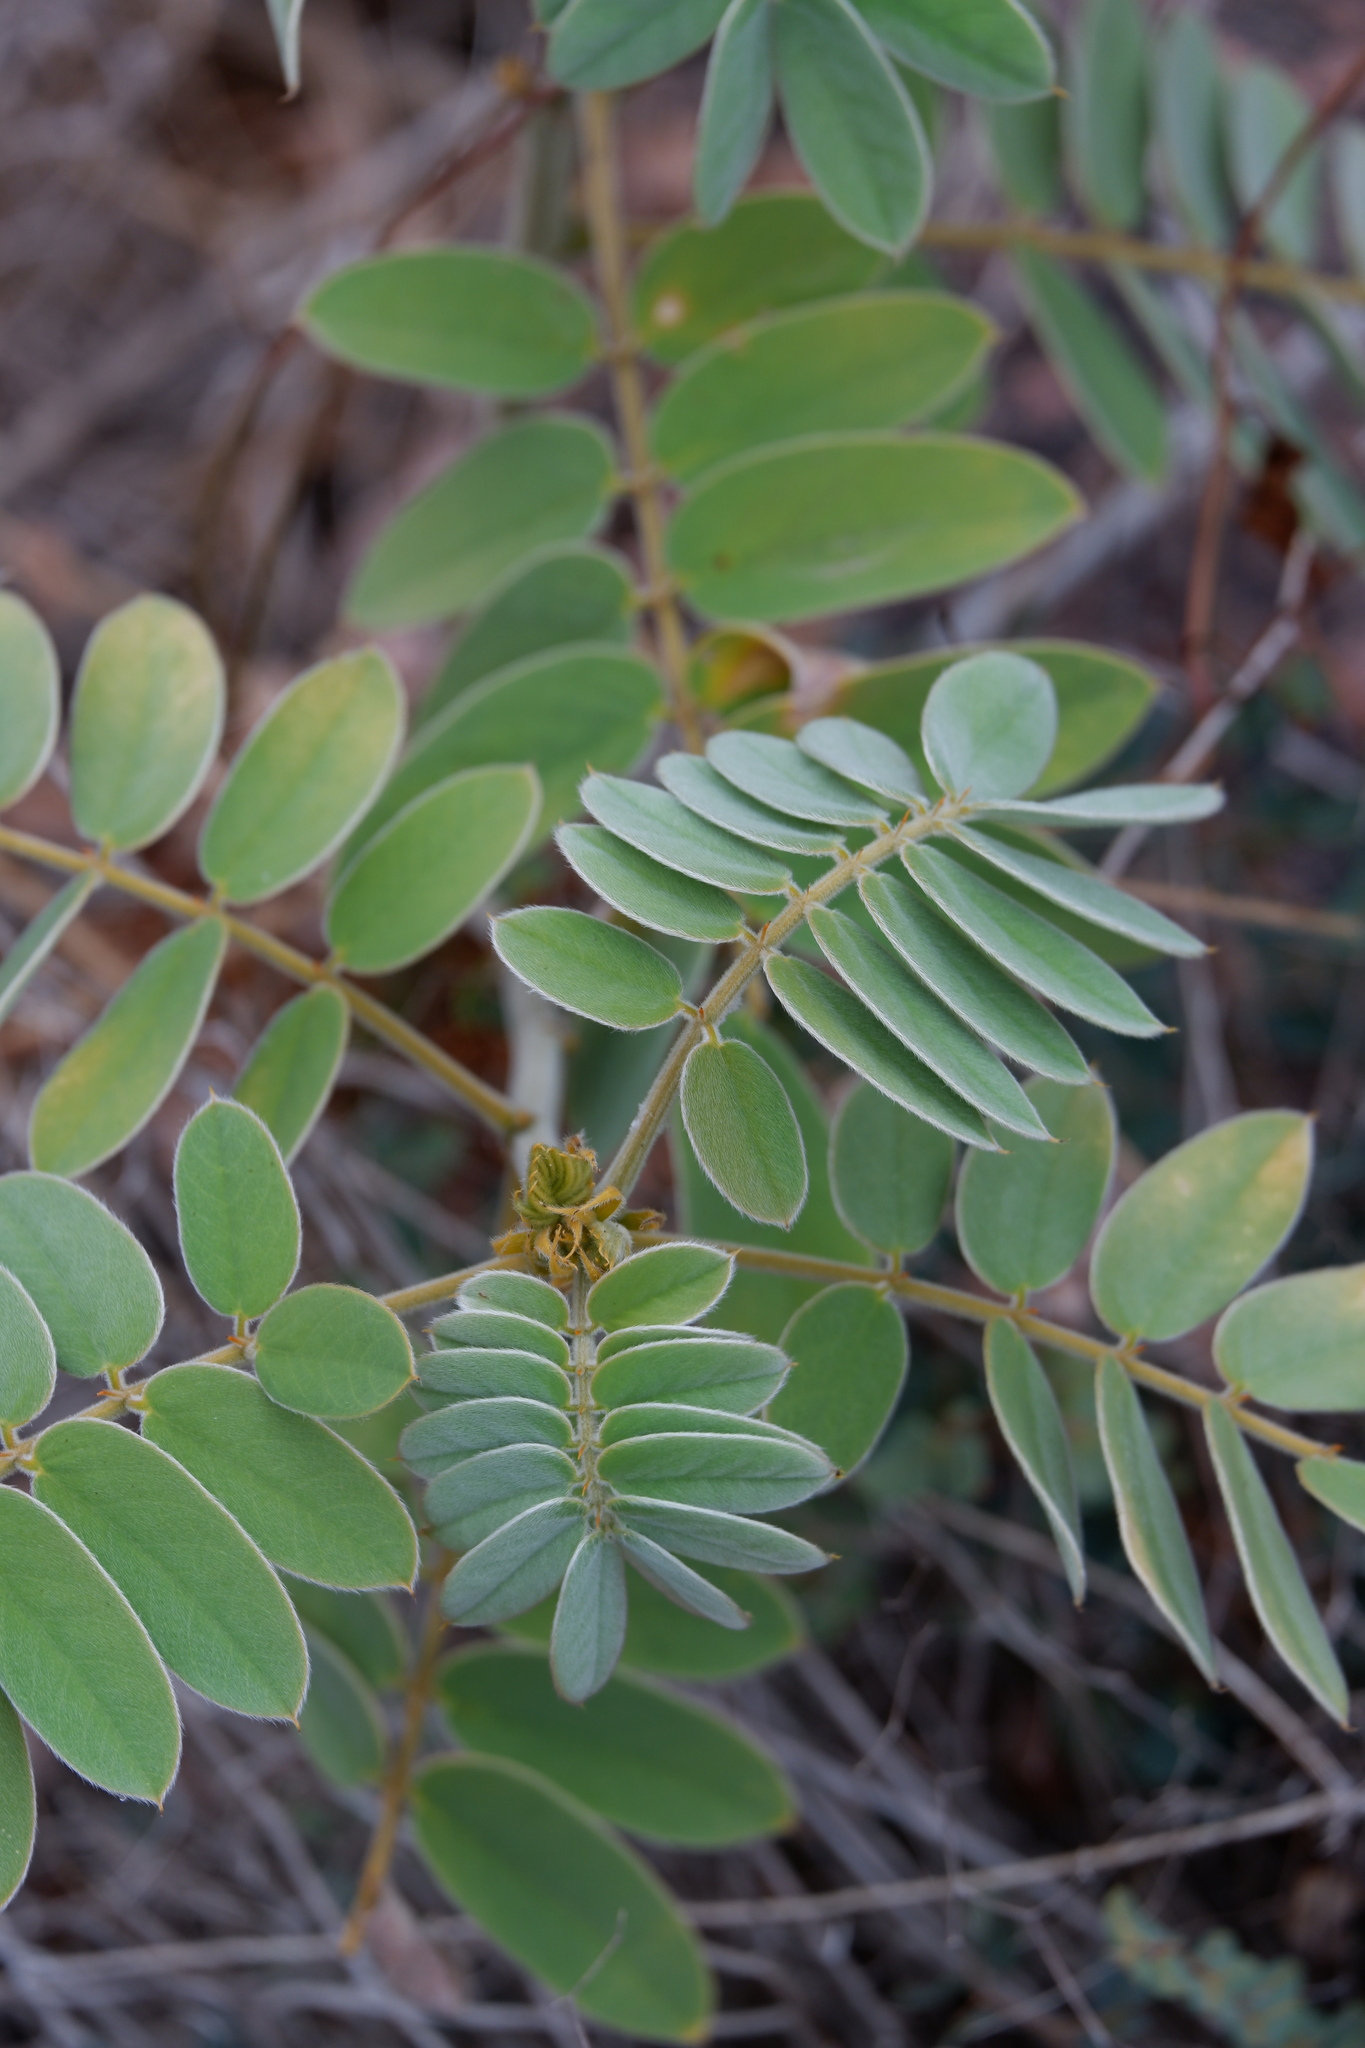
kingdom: Plantae
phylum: Tracheophyta
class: Magnoliopsida
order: Fabales
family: Fabaceae
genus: Senna
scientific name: Senna lindheimeriana
